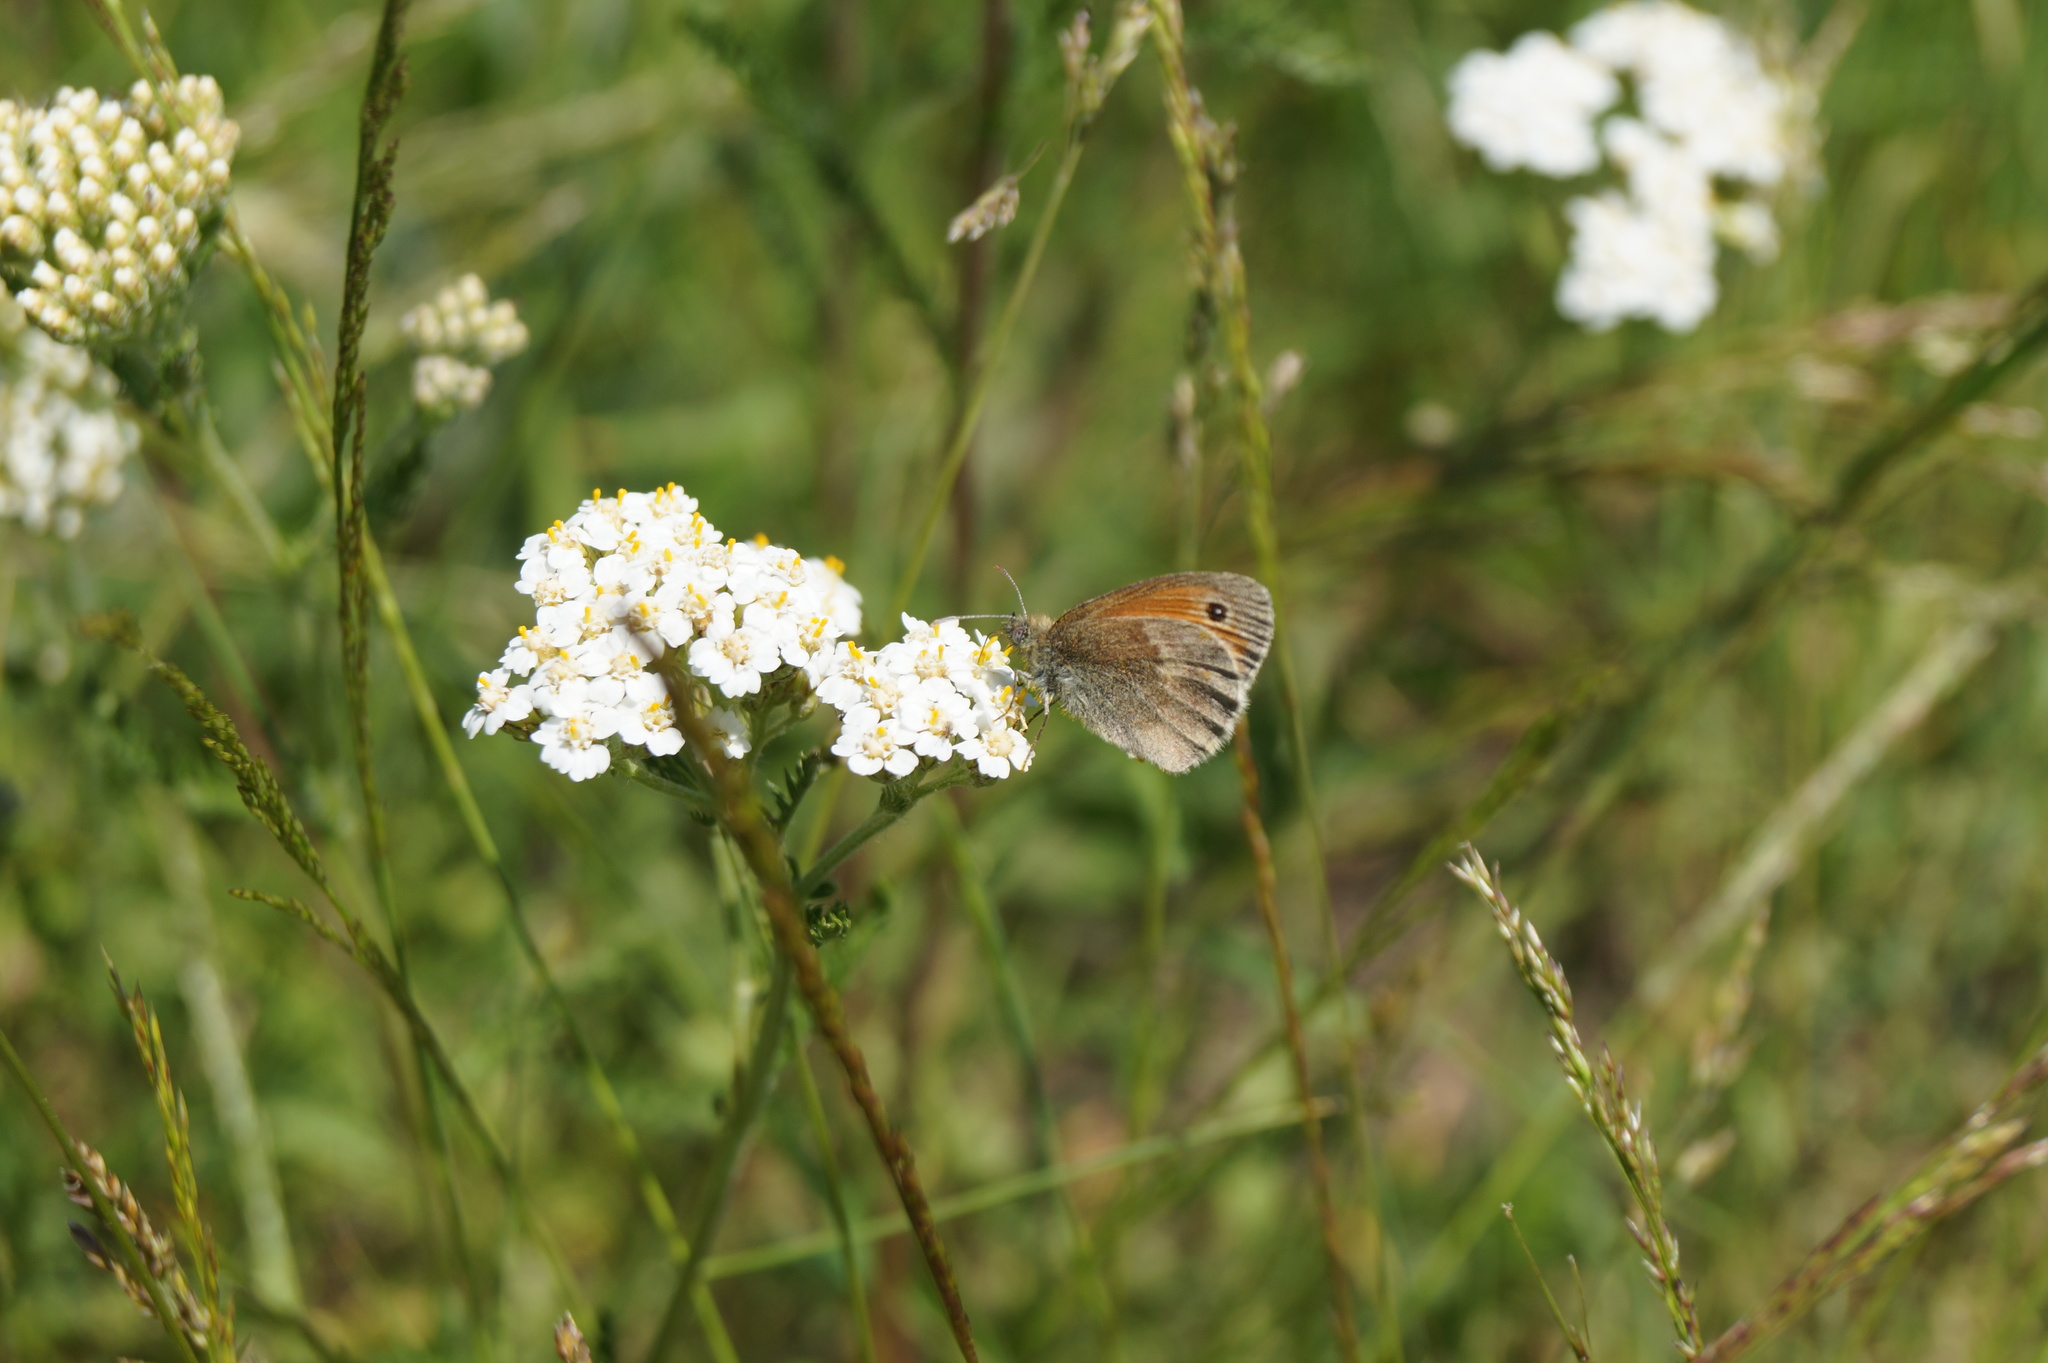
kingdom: Animalia
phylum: Arthropoda
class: Insecta
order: Lepidoptera
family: Nymphalidae
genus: Coenonympha
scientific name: Coenonympha pamphilus
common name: Small heath
